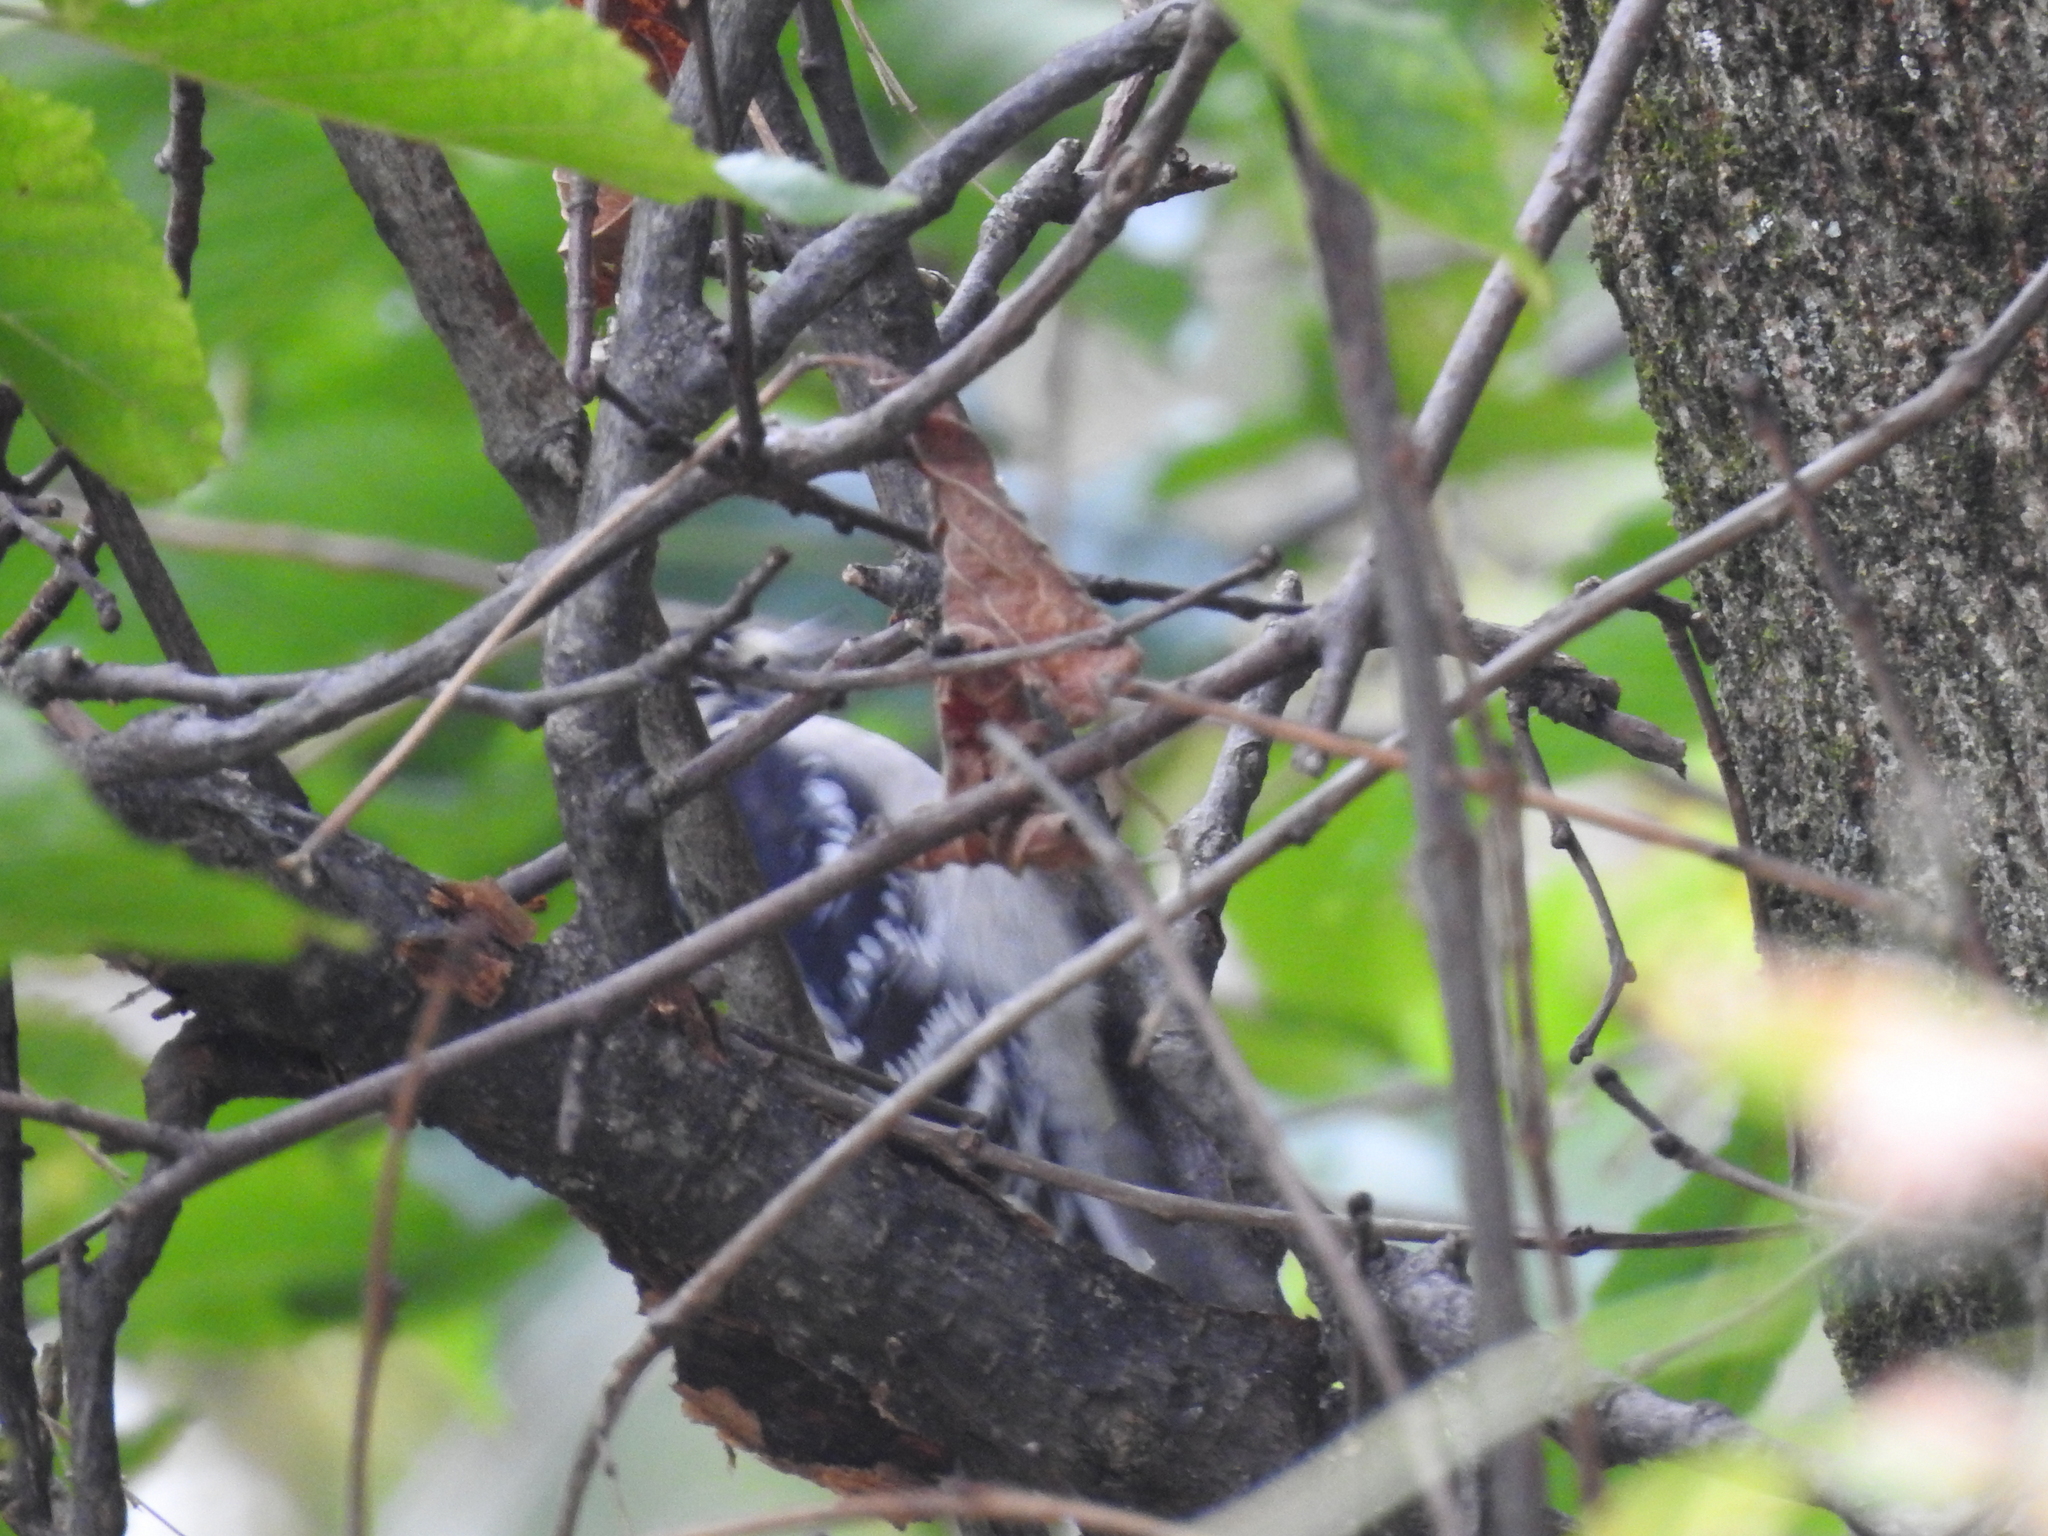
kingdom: Animalia
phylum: Chordata
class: Aves
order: Piciformes
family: Picidae
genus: Dryobates
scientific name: Dryobates pubescens
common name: Downy woodpecker
